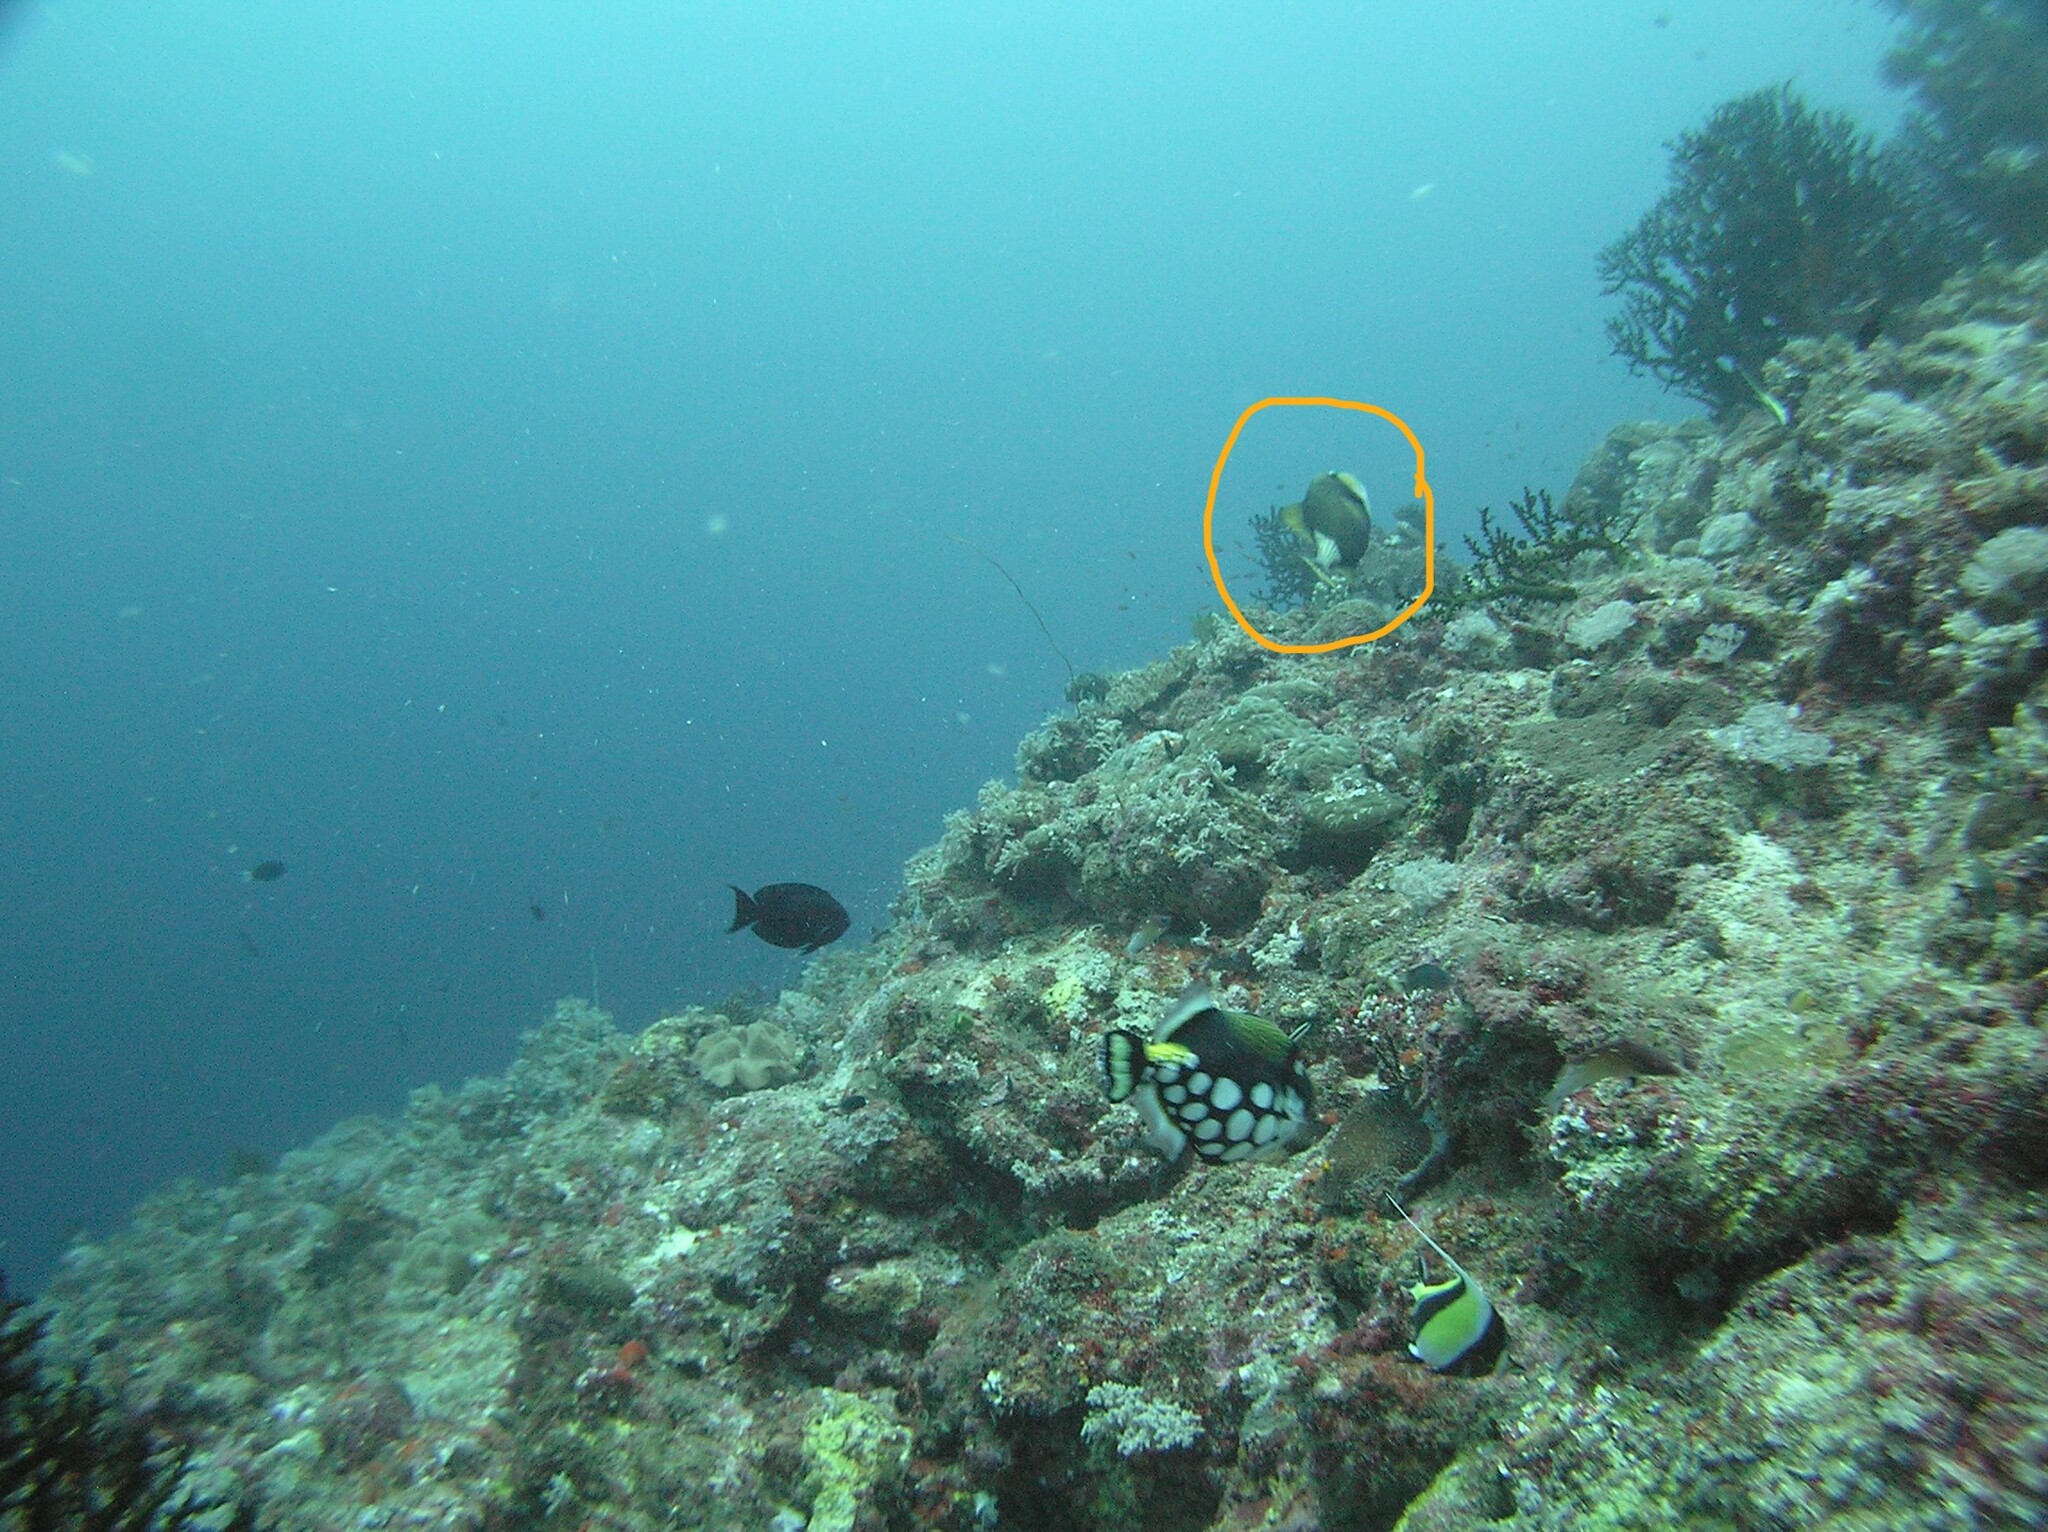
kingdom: Animalia
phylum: Chordata
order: Tetraodontiformes
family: Balistidae
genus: Balistoides
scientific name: Balistoides viridescens
